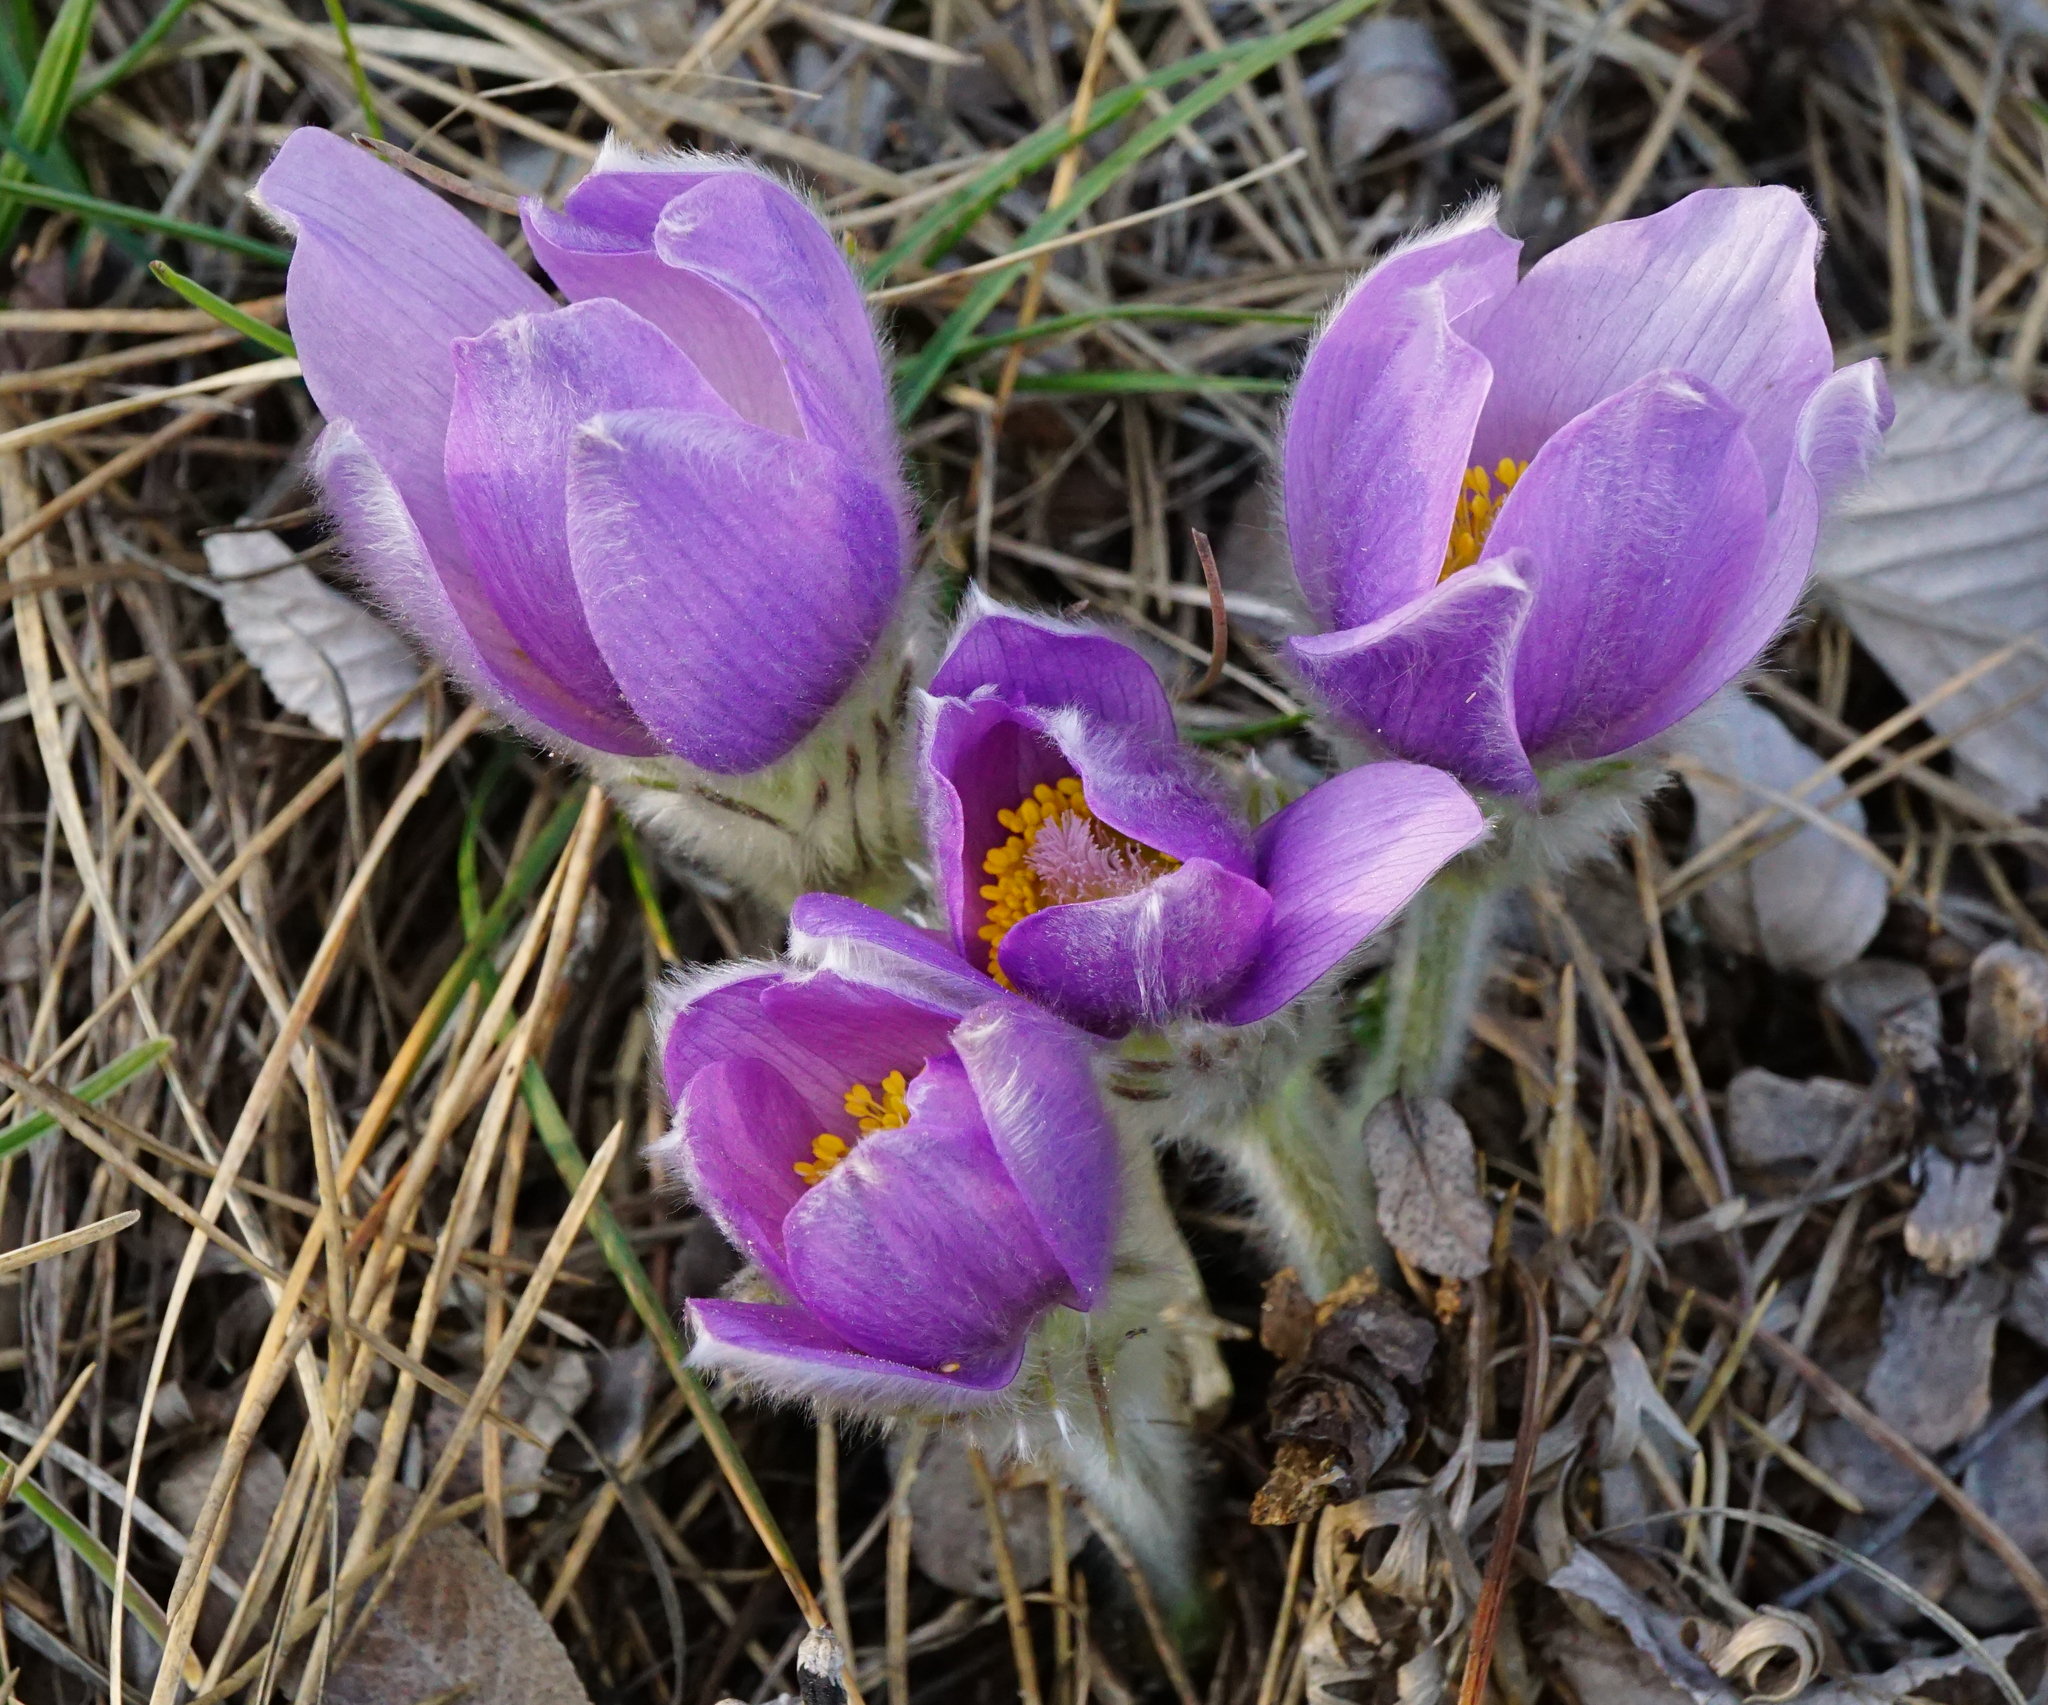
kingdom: Plantae
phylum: Tracheophyta
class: Magnoliopsida
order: Ranunculales
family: Ranunculaceae
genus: Pulsatilla
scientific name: Pulsatilla grandis
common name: Greater pasque flower
